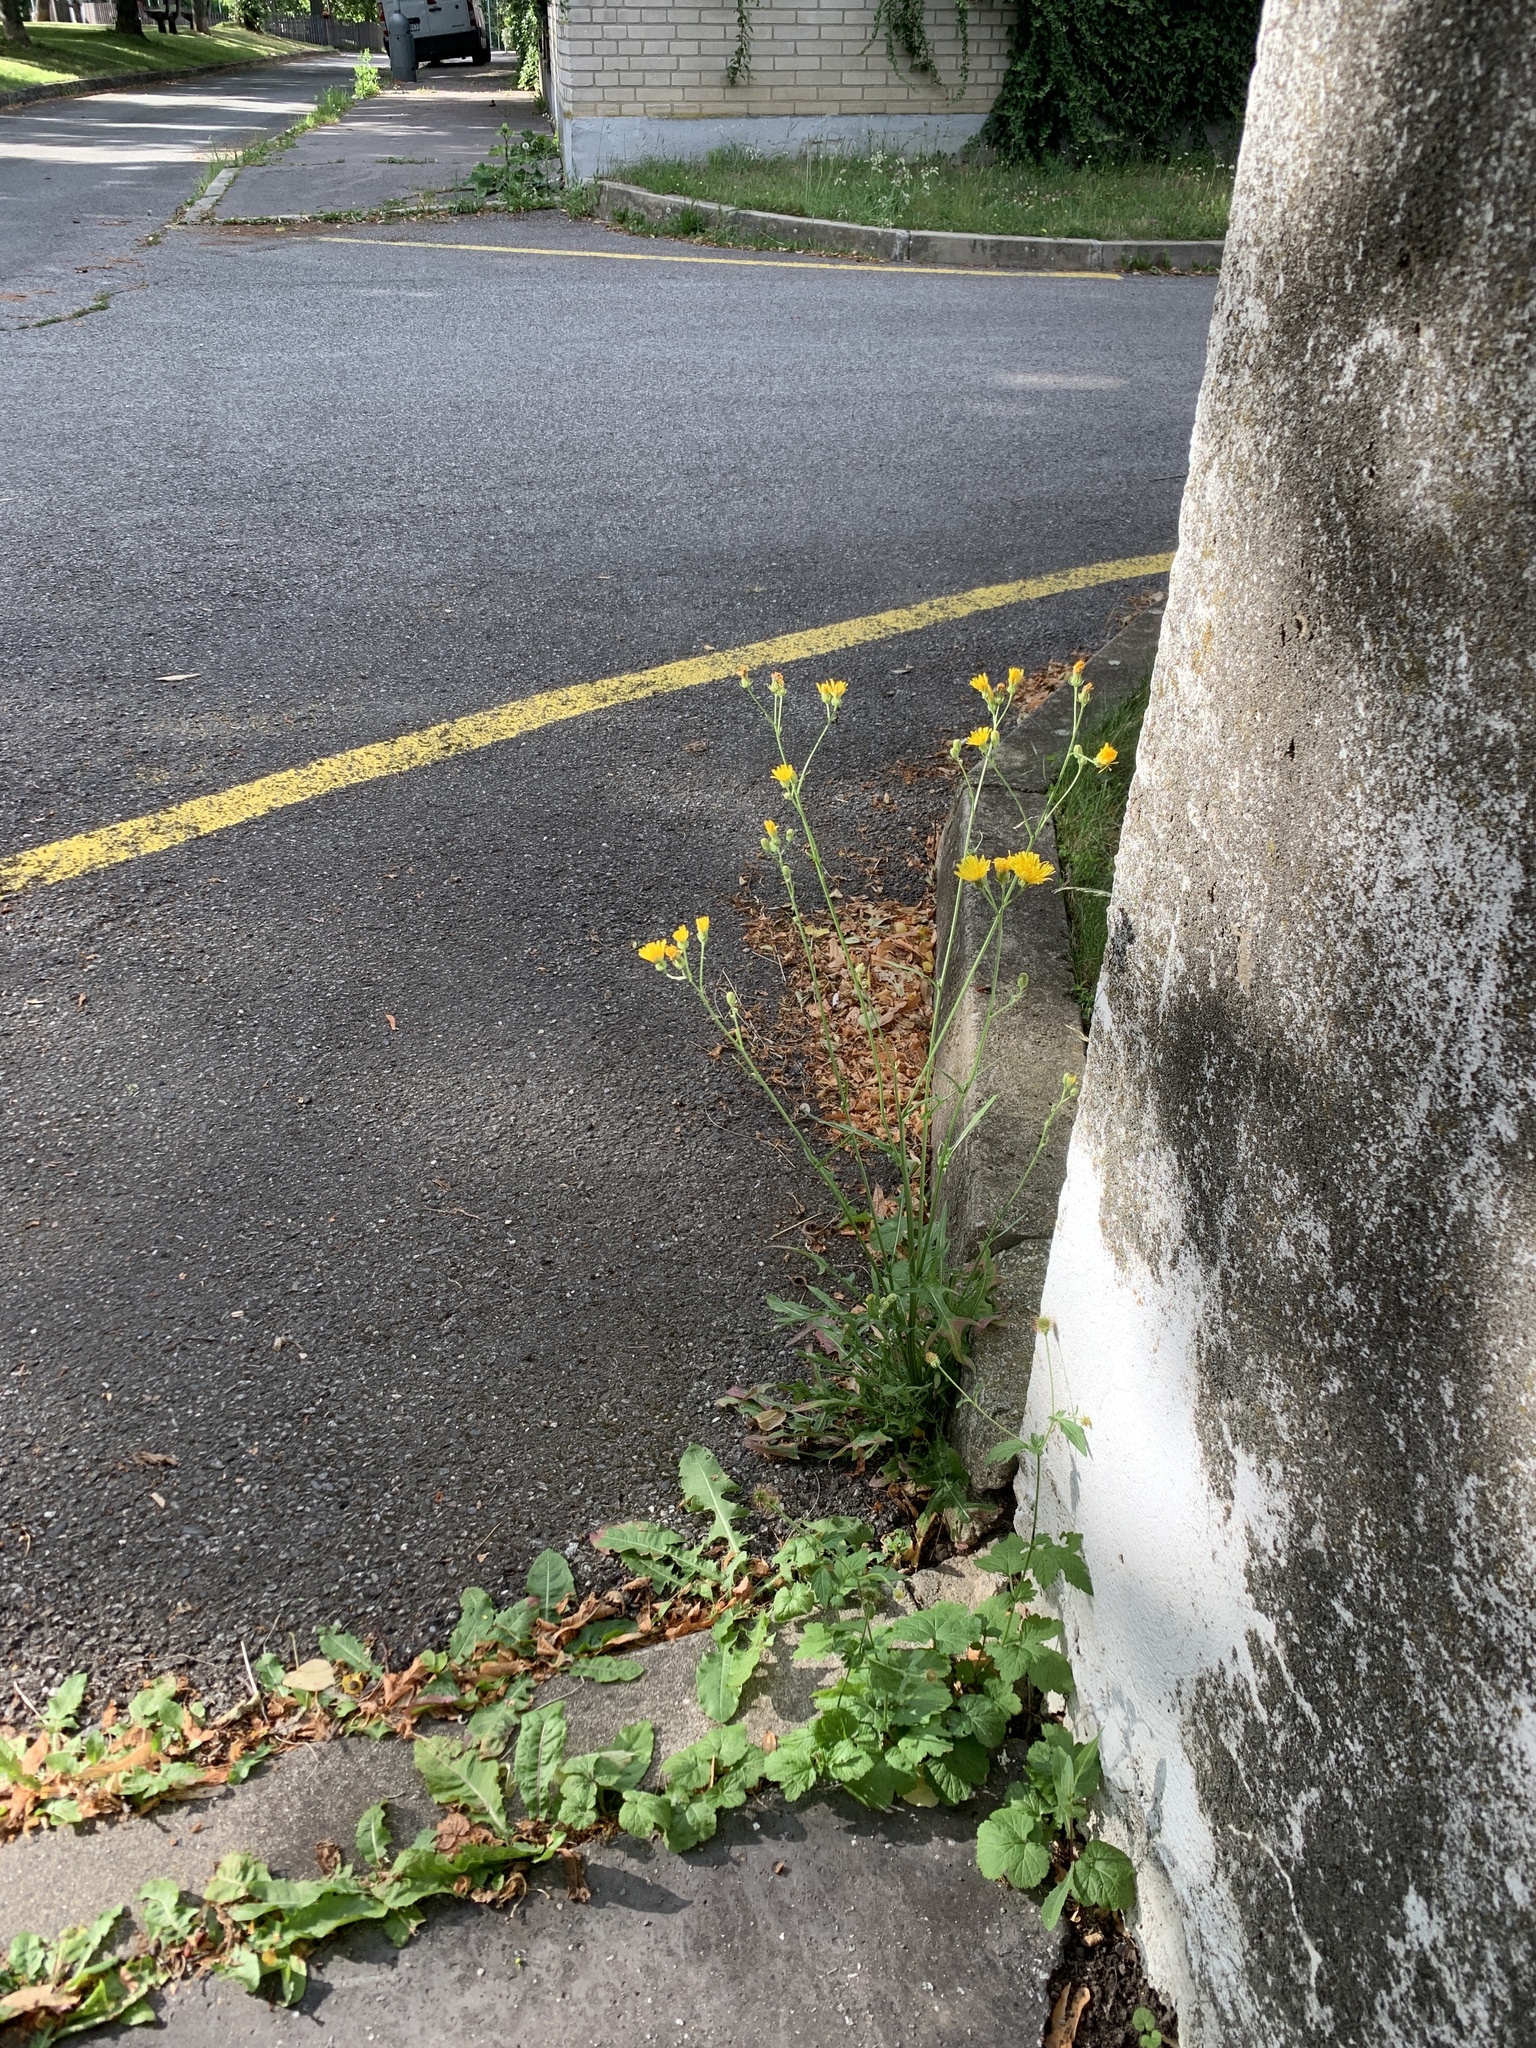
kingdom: Plantae
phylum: Tracheophyta
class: Magnoliopsida
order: Asterales
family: Asteraceae
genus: Crepis
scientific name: Crepis biennis
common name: Rough hawk's-beard
